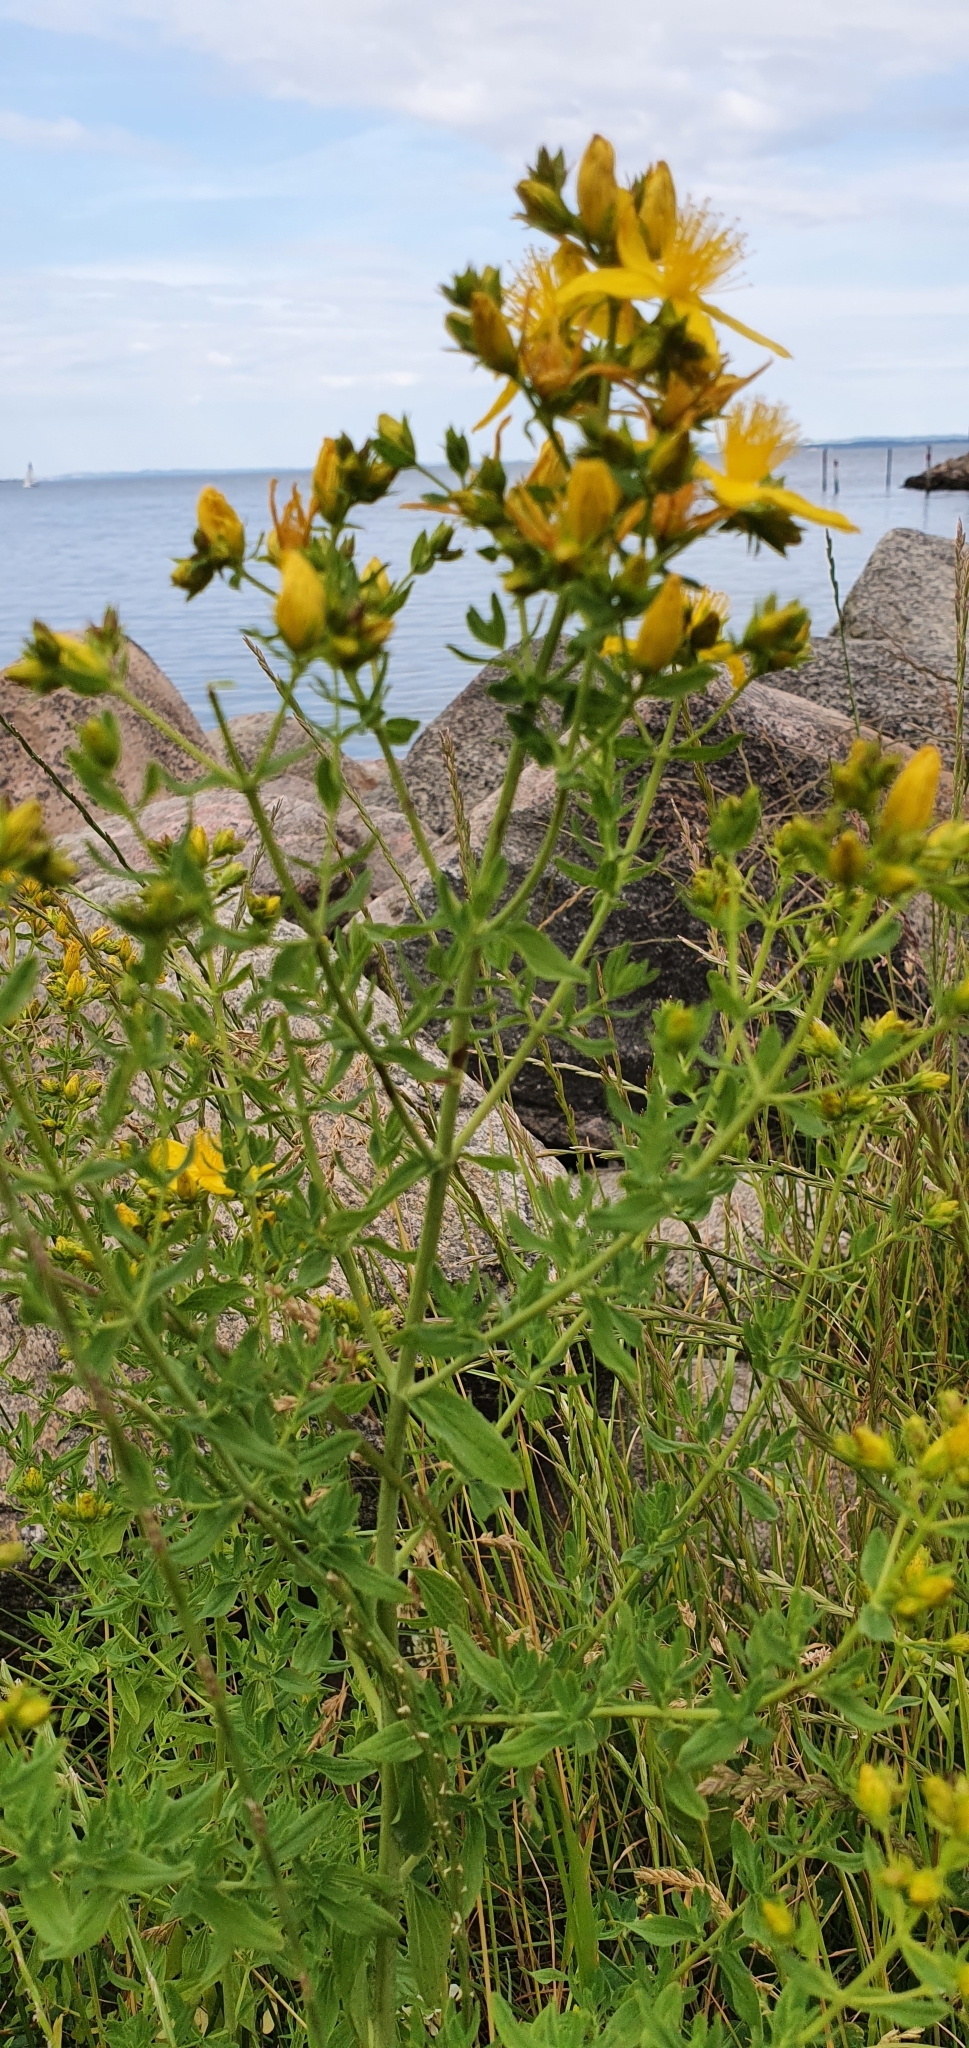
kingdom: Plantae
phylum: Tracheophyta
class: Magnoliopsida
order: Malpighiales
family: Hypericaceae
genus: Hypericum
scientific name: Hypericum perforatum
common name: Common st. johnswort
